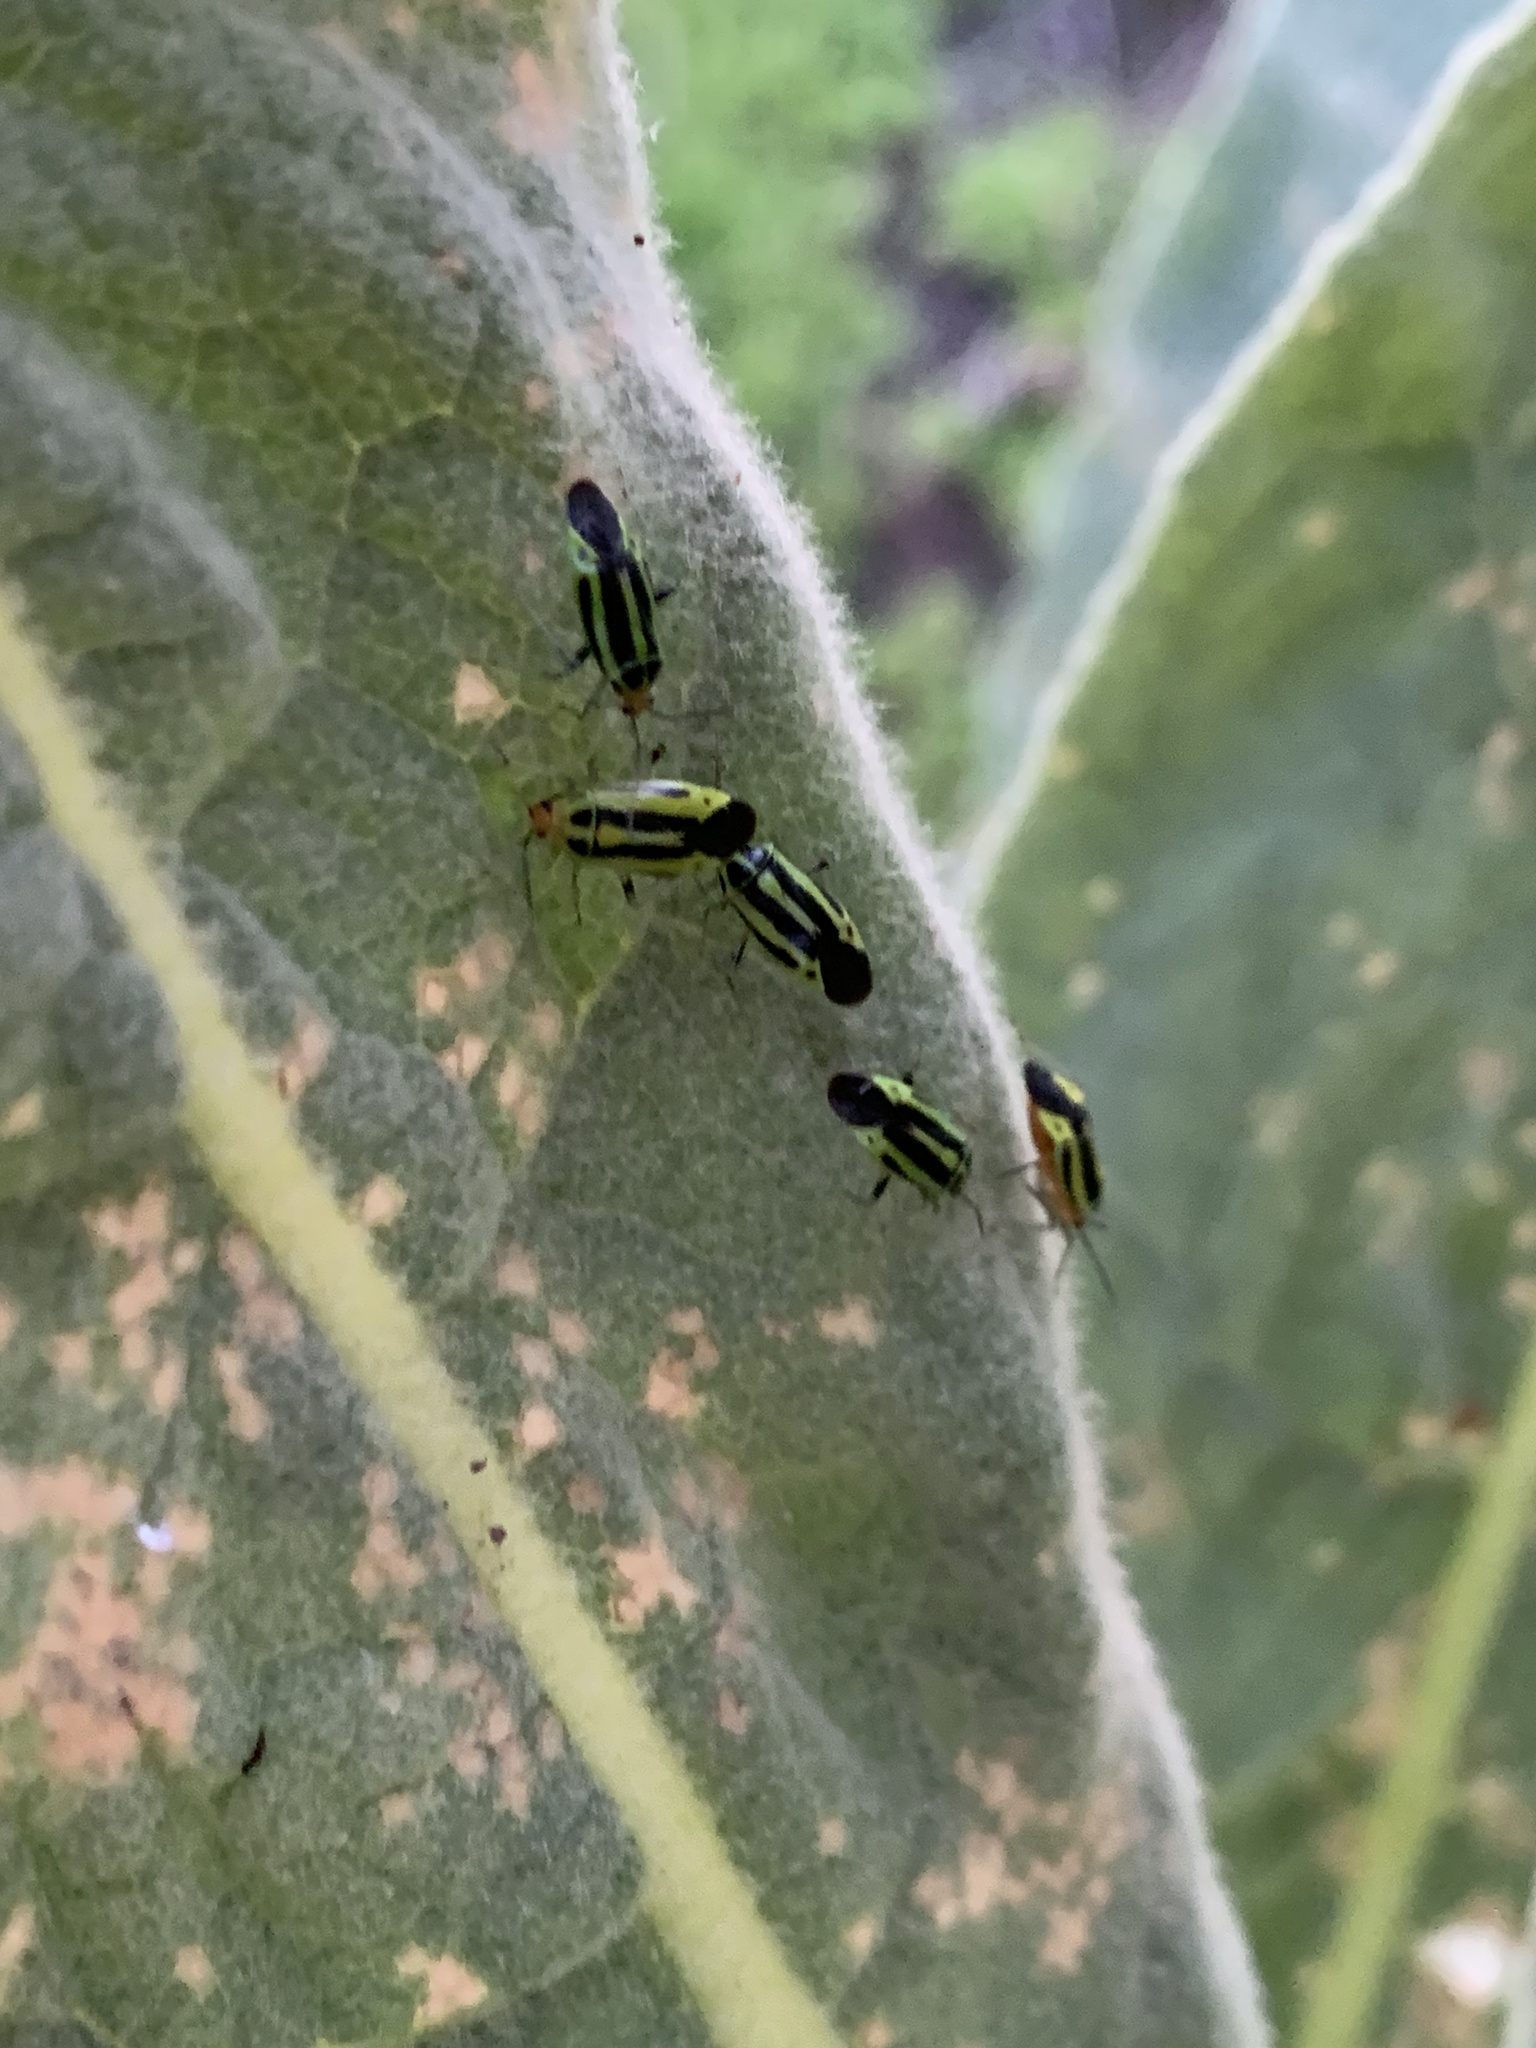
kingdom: Animalia
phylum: Arthropoda
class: Insecta
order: Hemiptera
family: Miridae
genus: Poecilocapsus
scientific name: Poecilocapsus lineatus
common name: Four-lined plant bug
